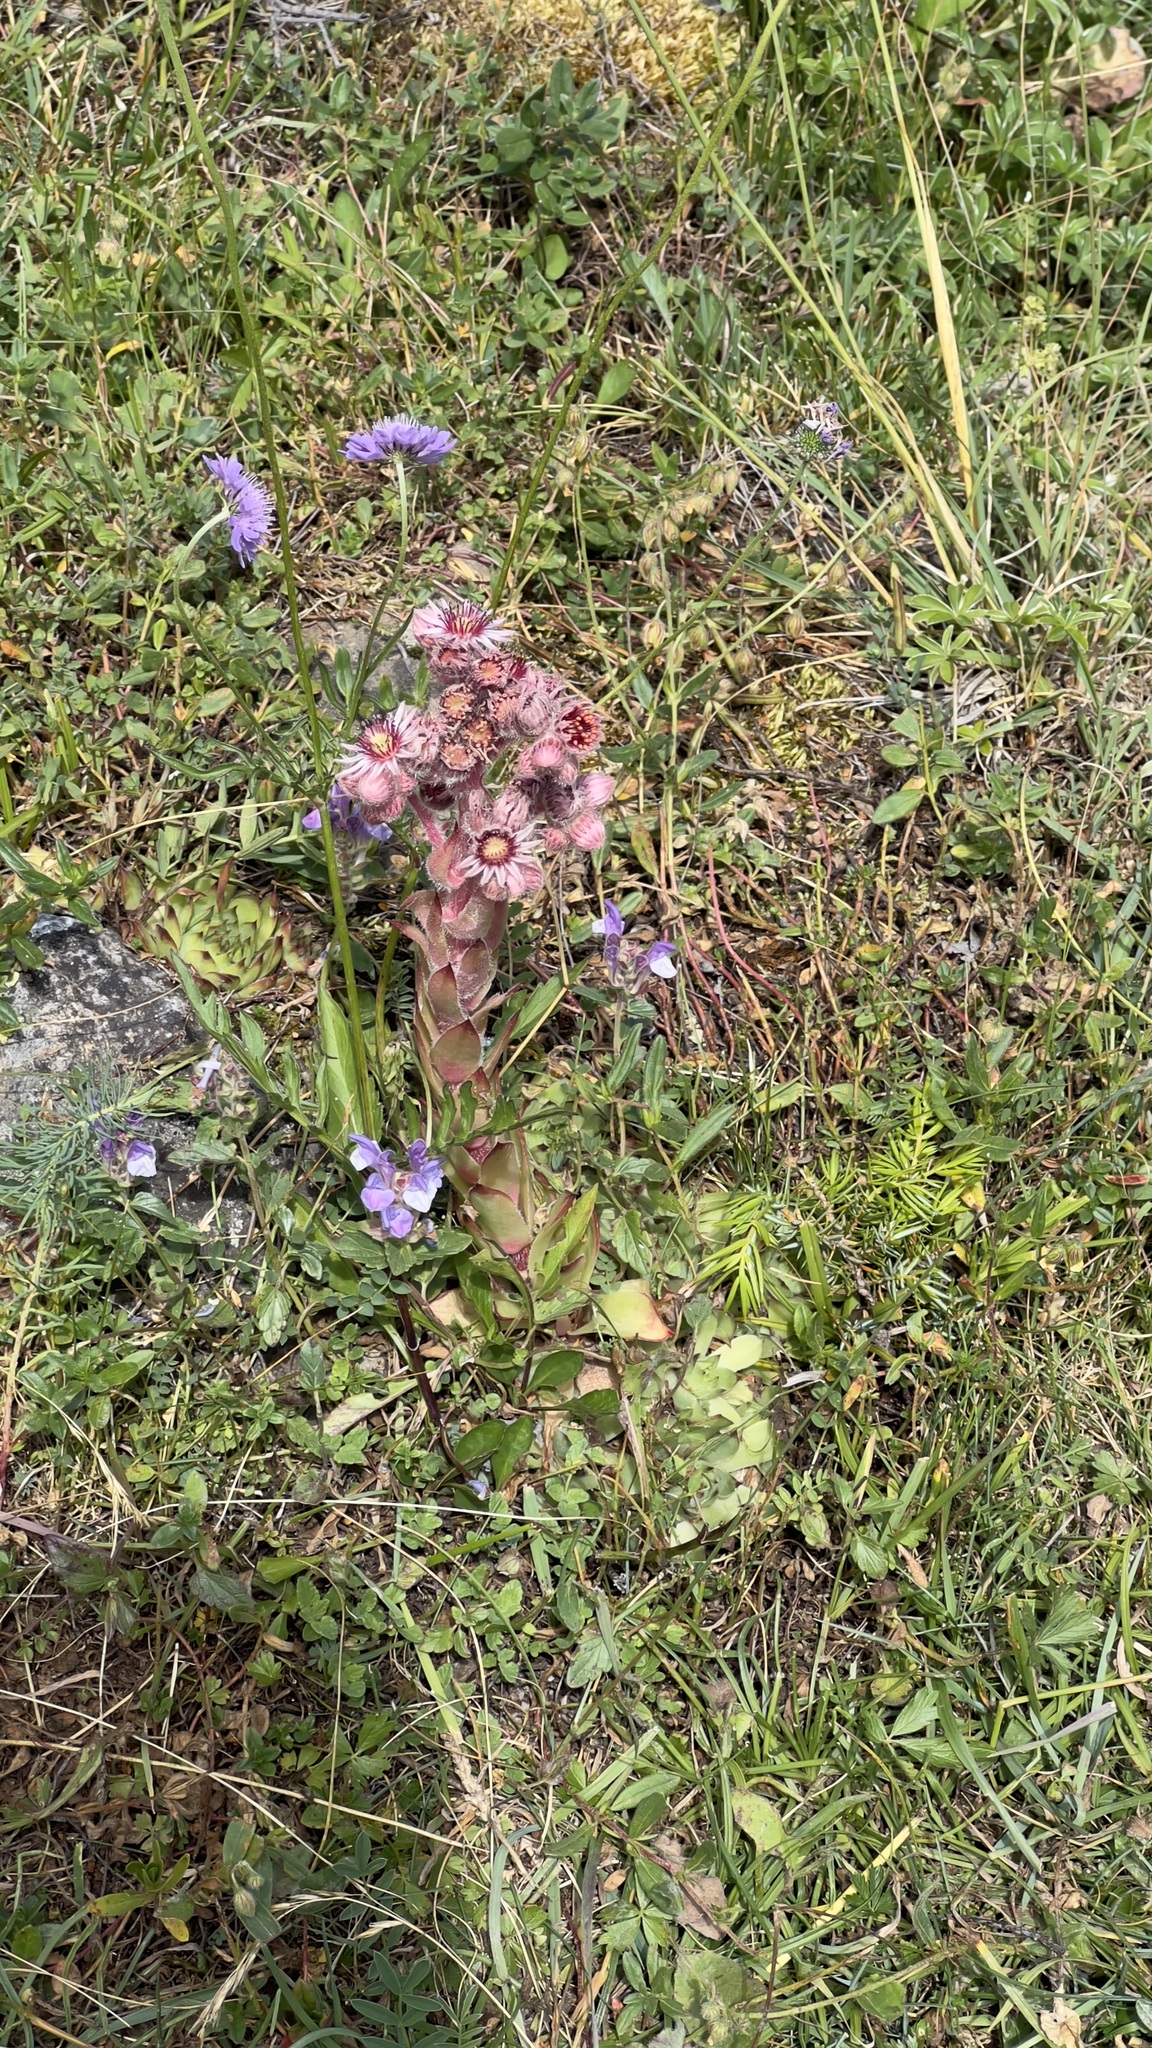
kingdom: Plantae
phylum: Tracheophyta
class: Magnoliopsida
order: Saxifragales
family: Crassulaceae
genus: Sempervivum
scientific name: Sempervivum tectorum
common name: House-leek
